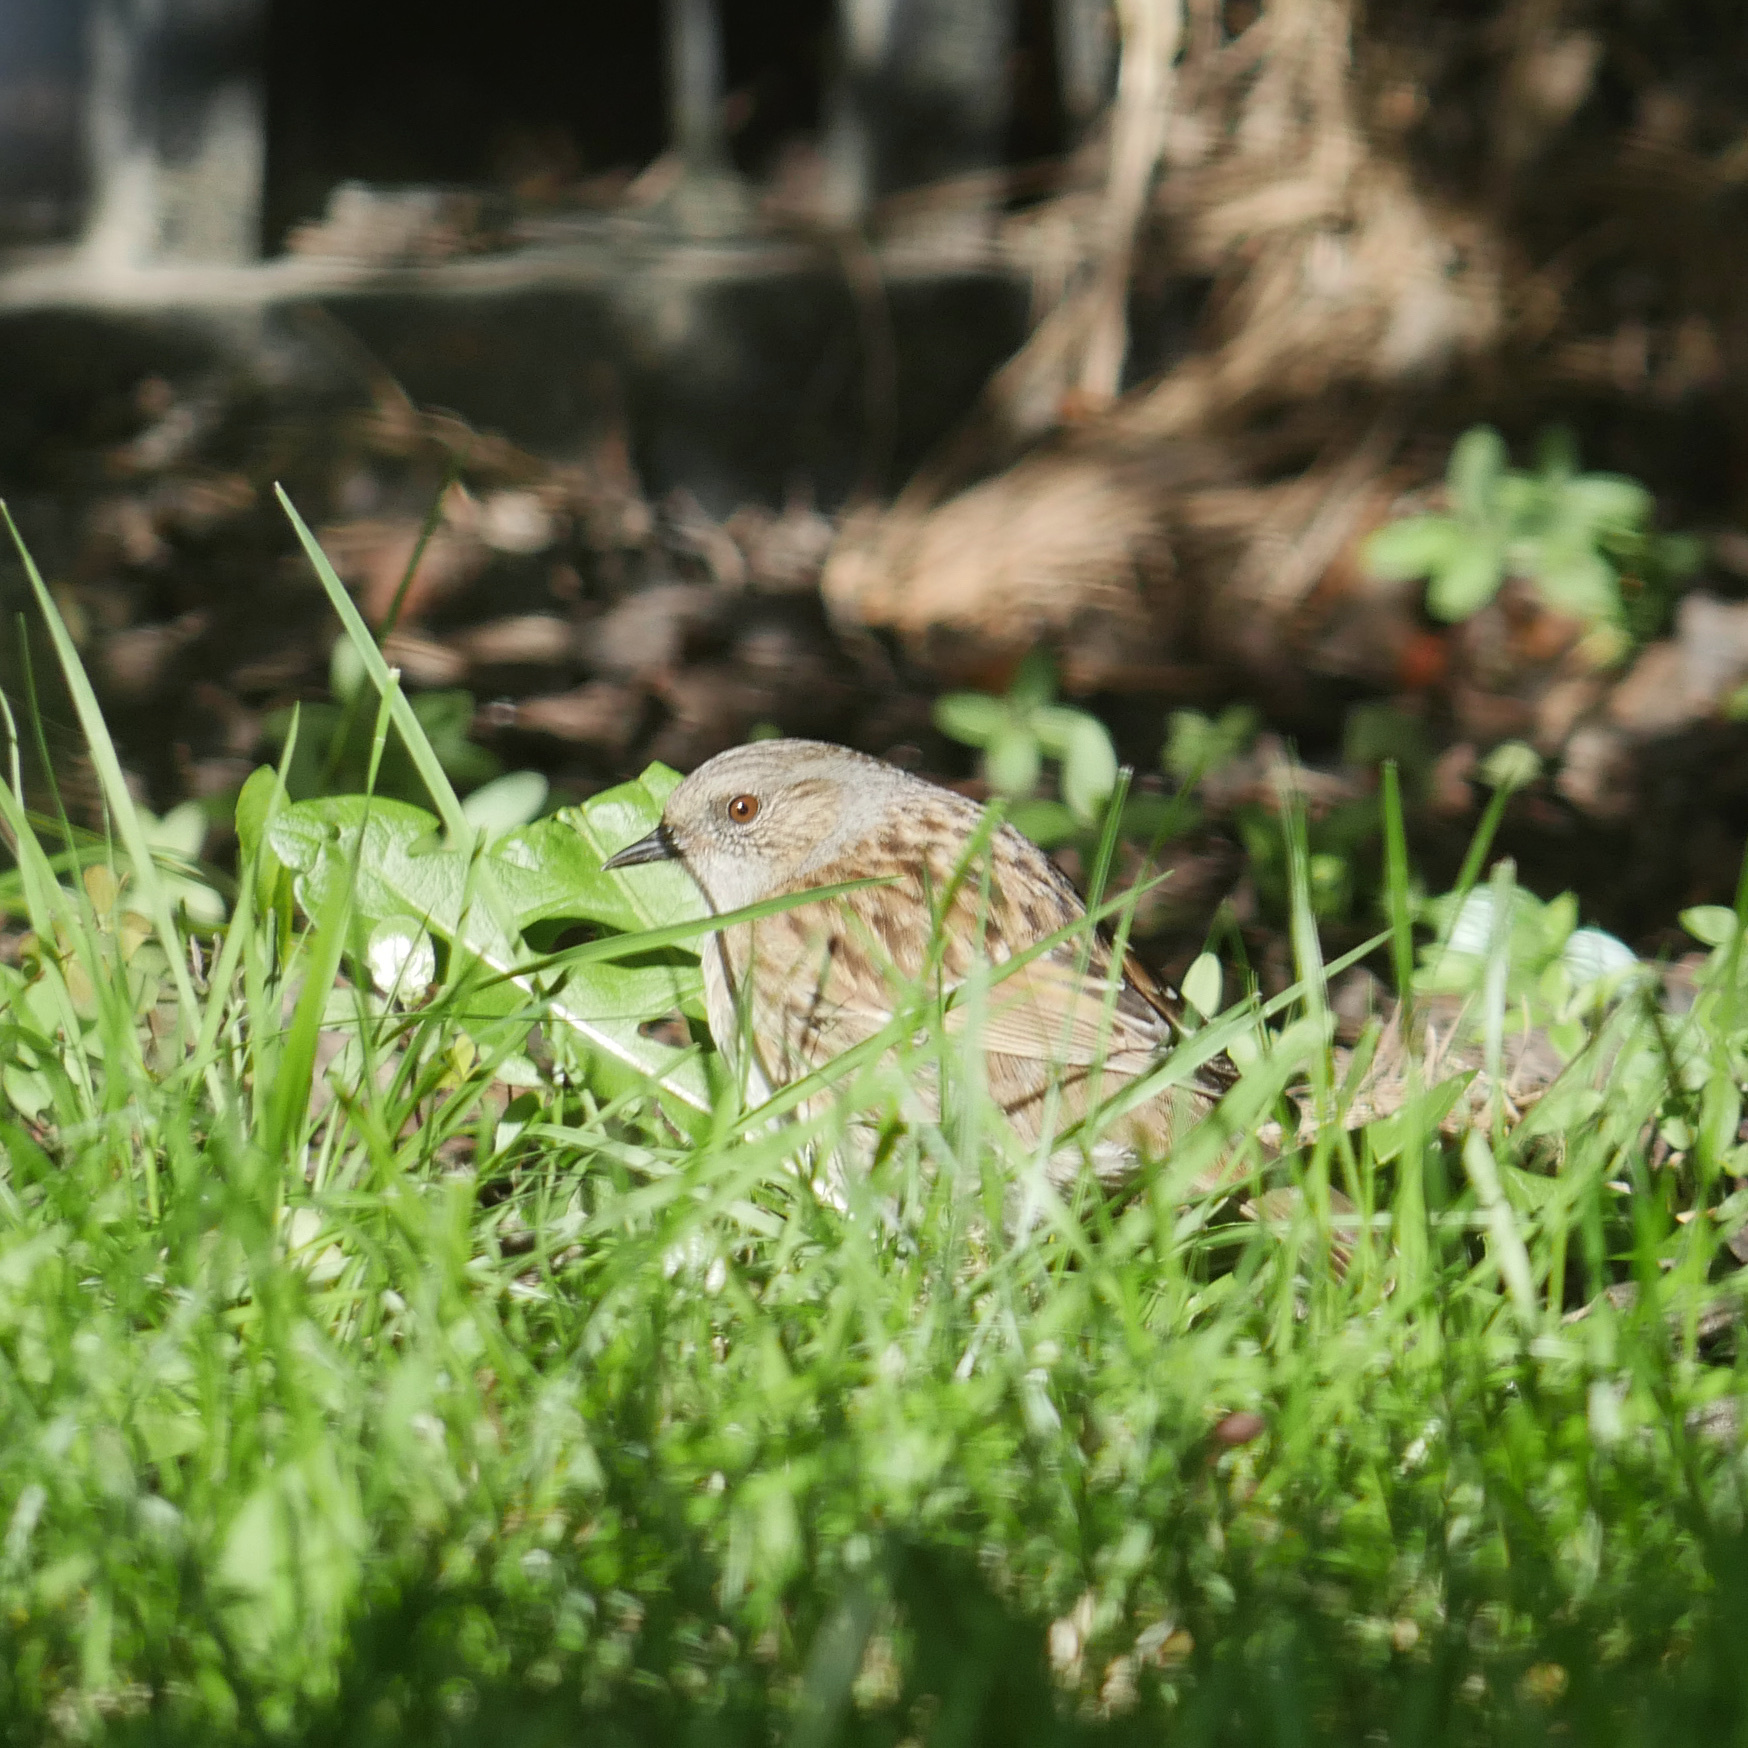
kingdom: Animalia
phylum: Chordata
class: Aves
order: Passeriformes
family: Prunellidae
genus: Prunella
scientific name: Prunella modularis
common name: Dunnock
